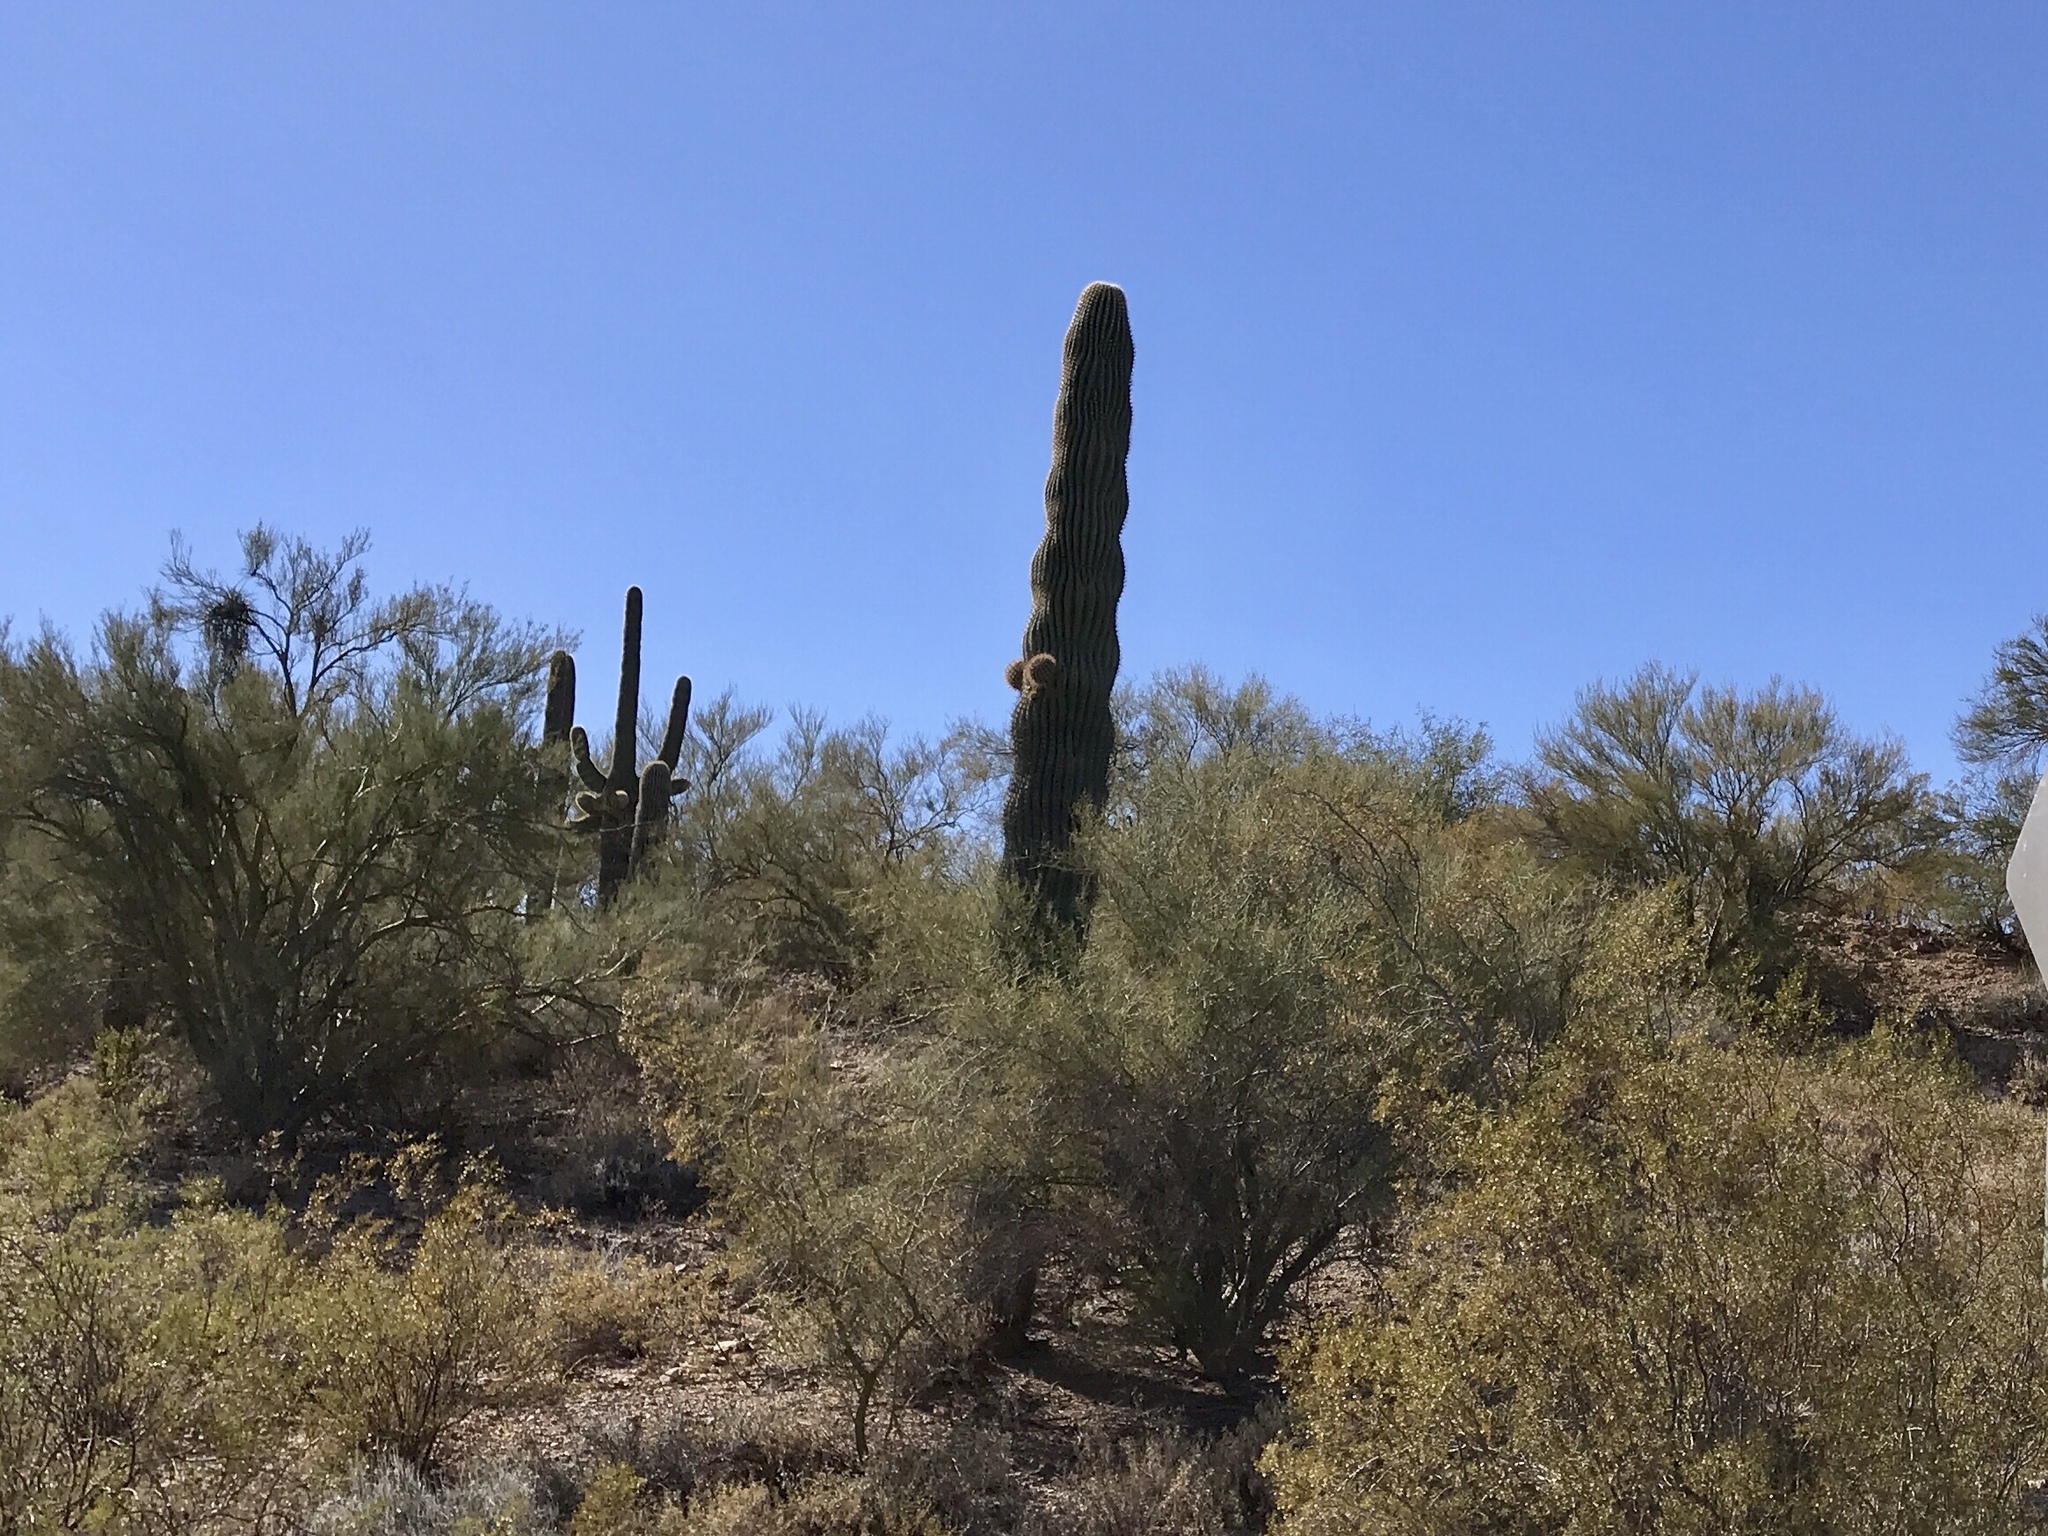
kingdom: Plantae
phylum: Tracheophyta
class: Magnoliopsida
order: Caryophyllales
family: Cactaceae
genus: Carnegiea
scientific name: Carnegiea gigantea
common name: Saguaro
